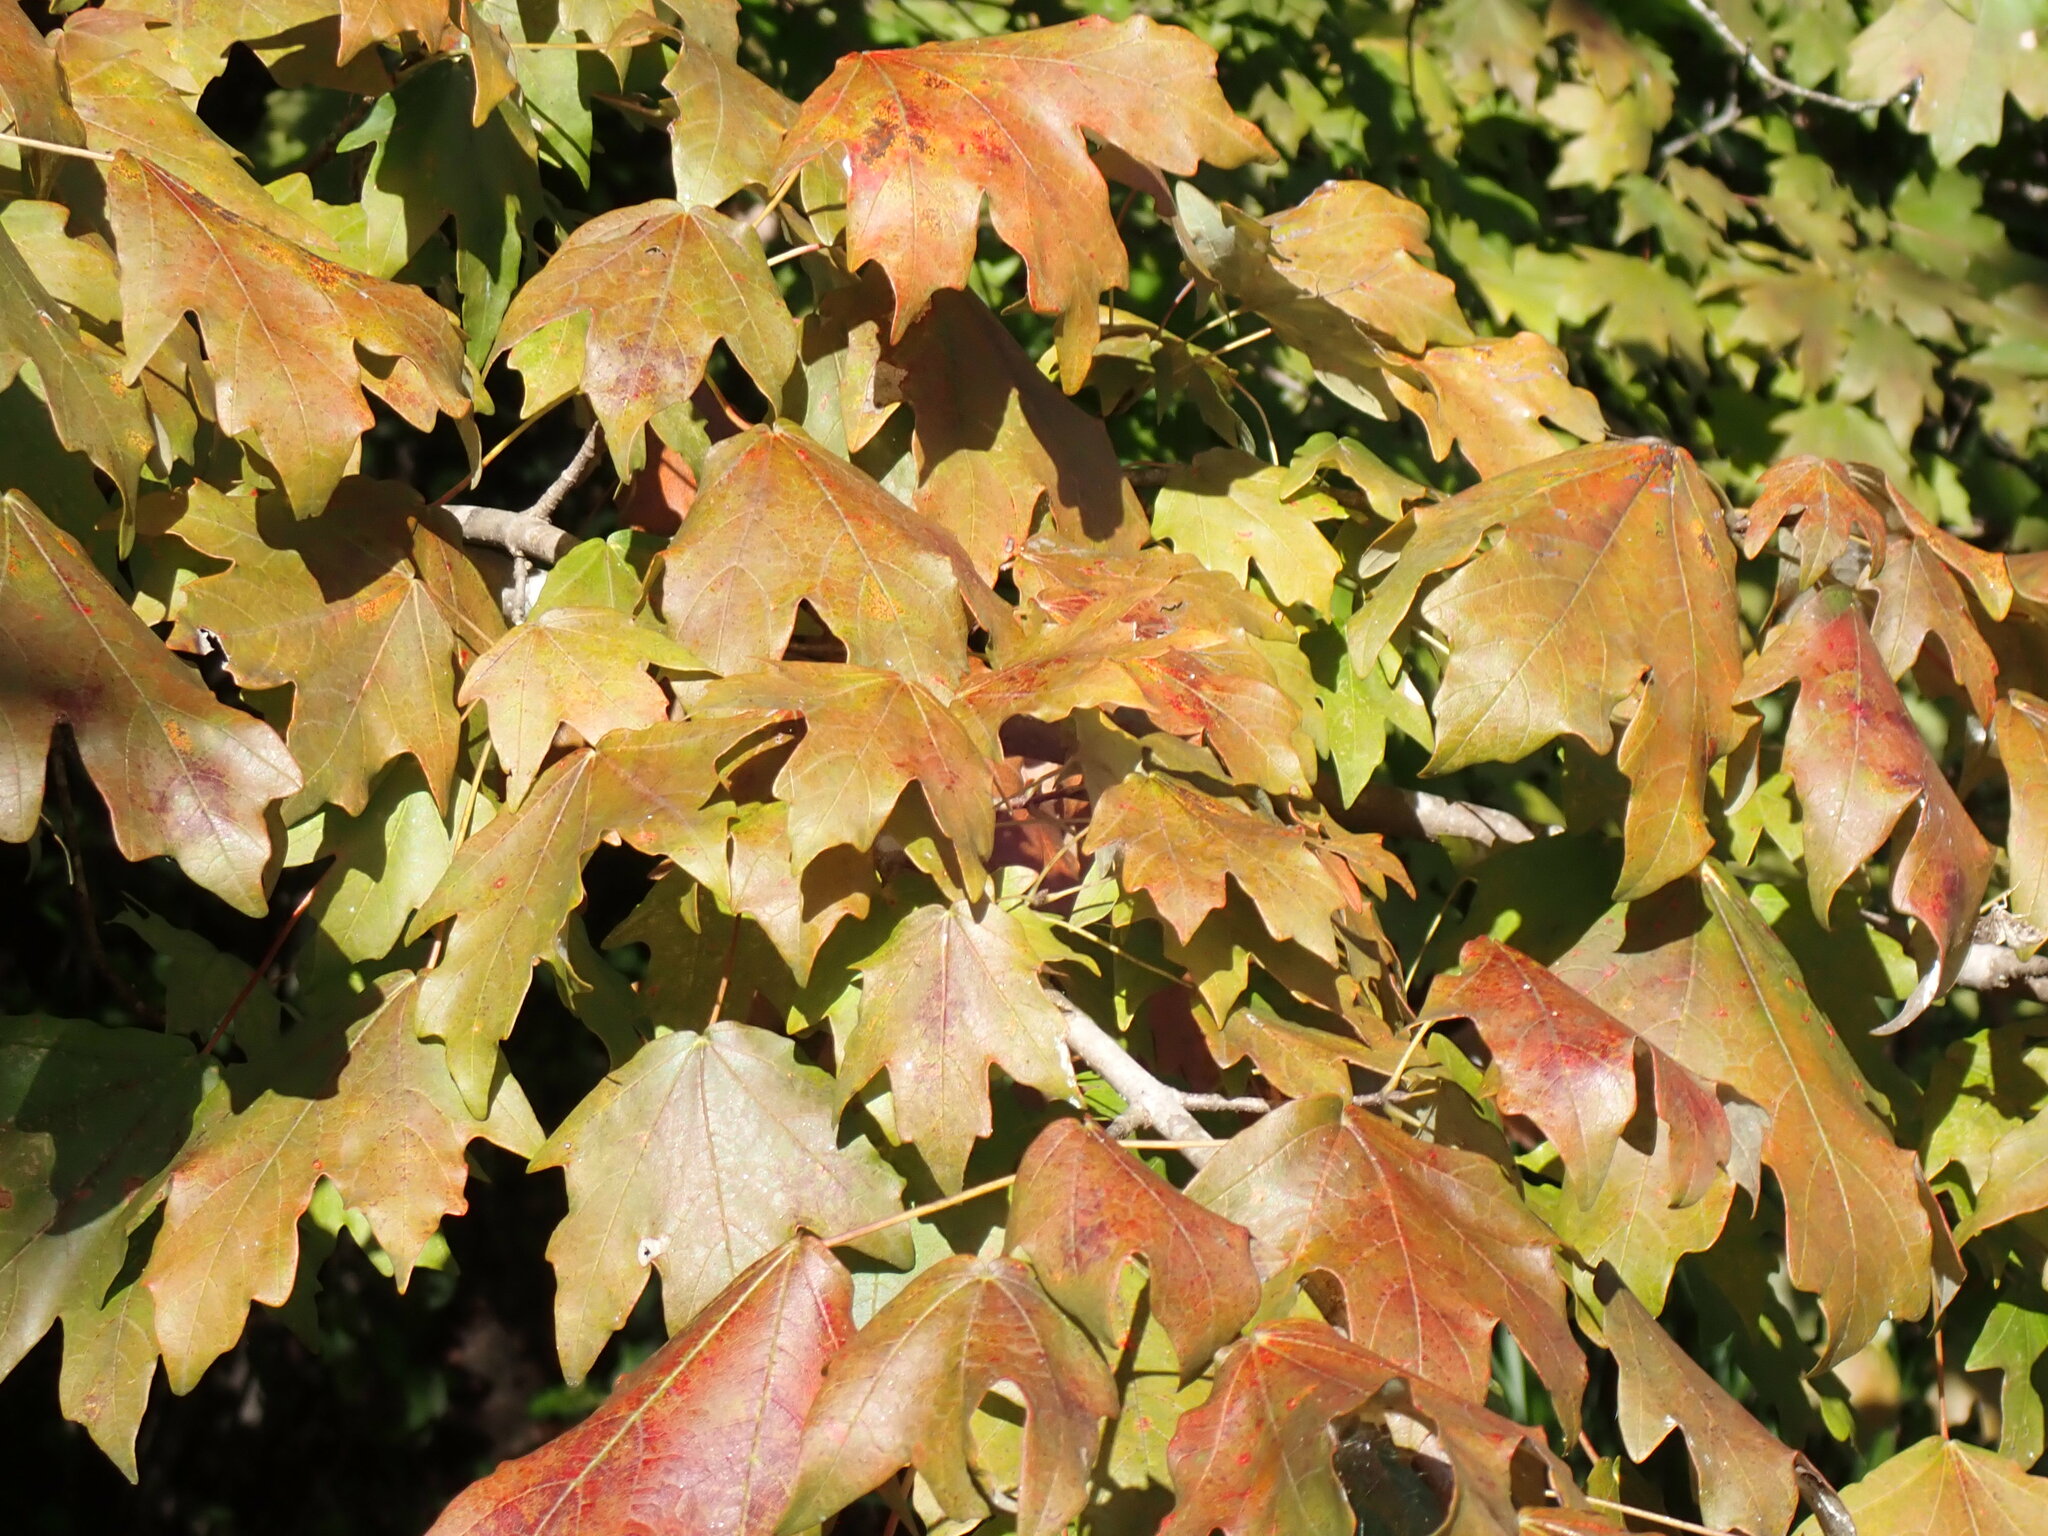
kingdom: Plantae
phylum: Tracheophyta
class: Magnoliopsida
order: Sapindales
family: Sapindaceae
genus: Acer
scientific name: Acer floridanum
